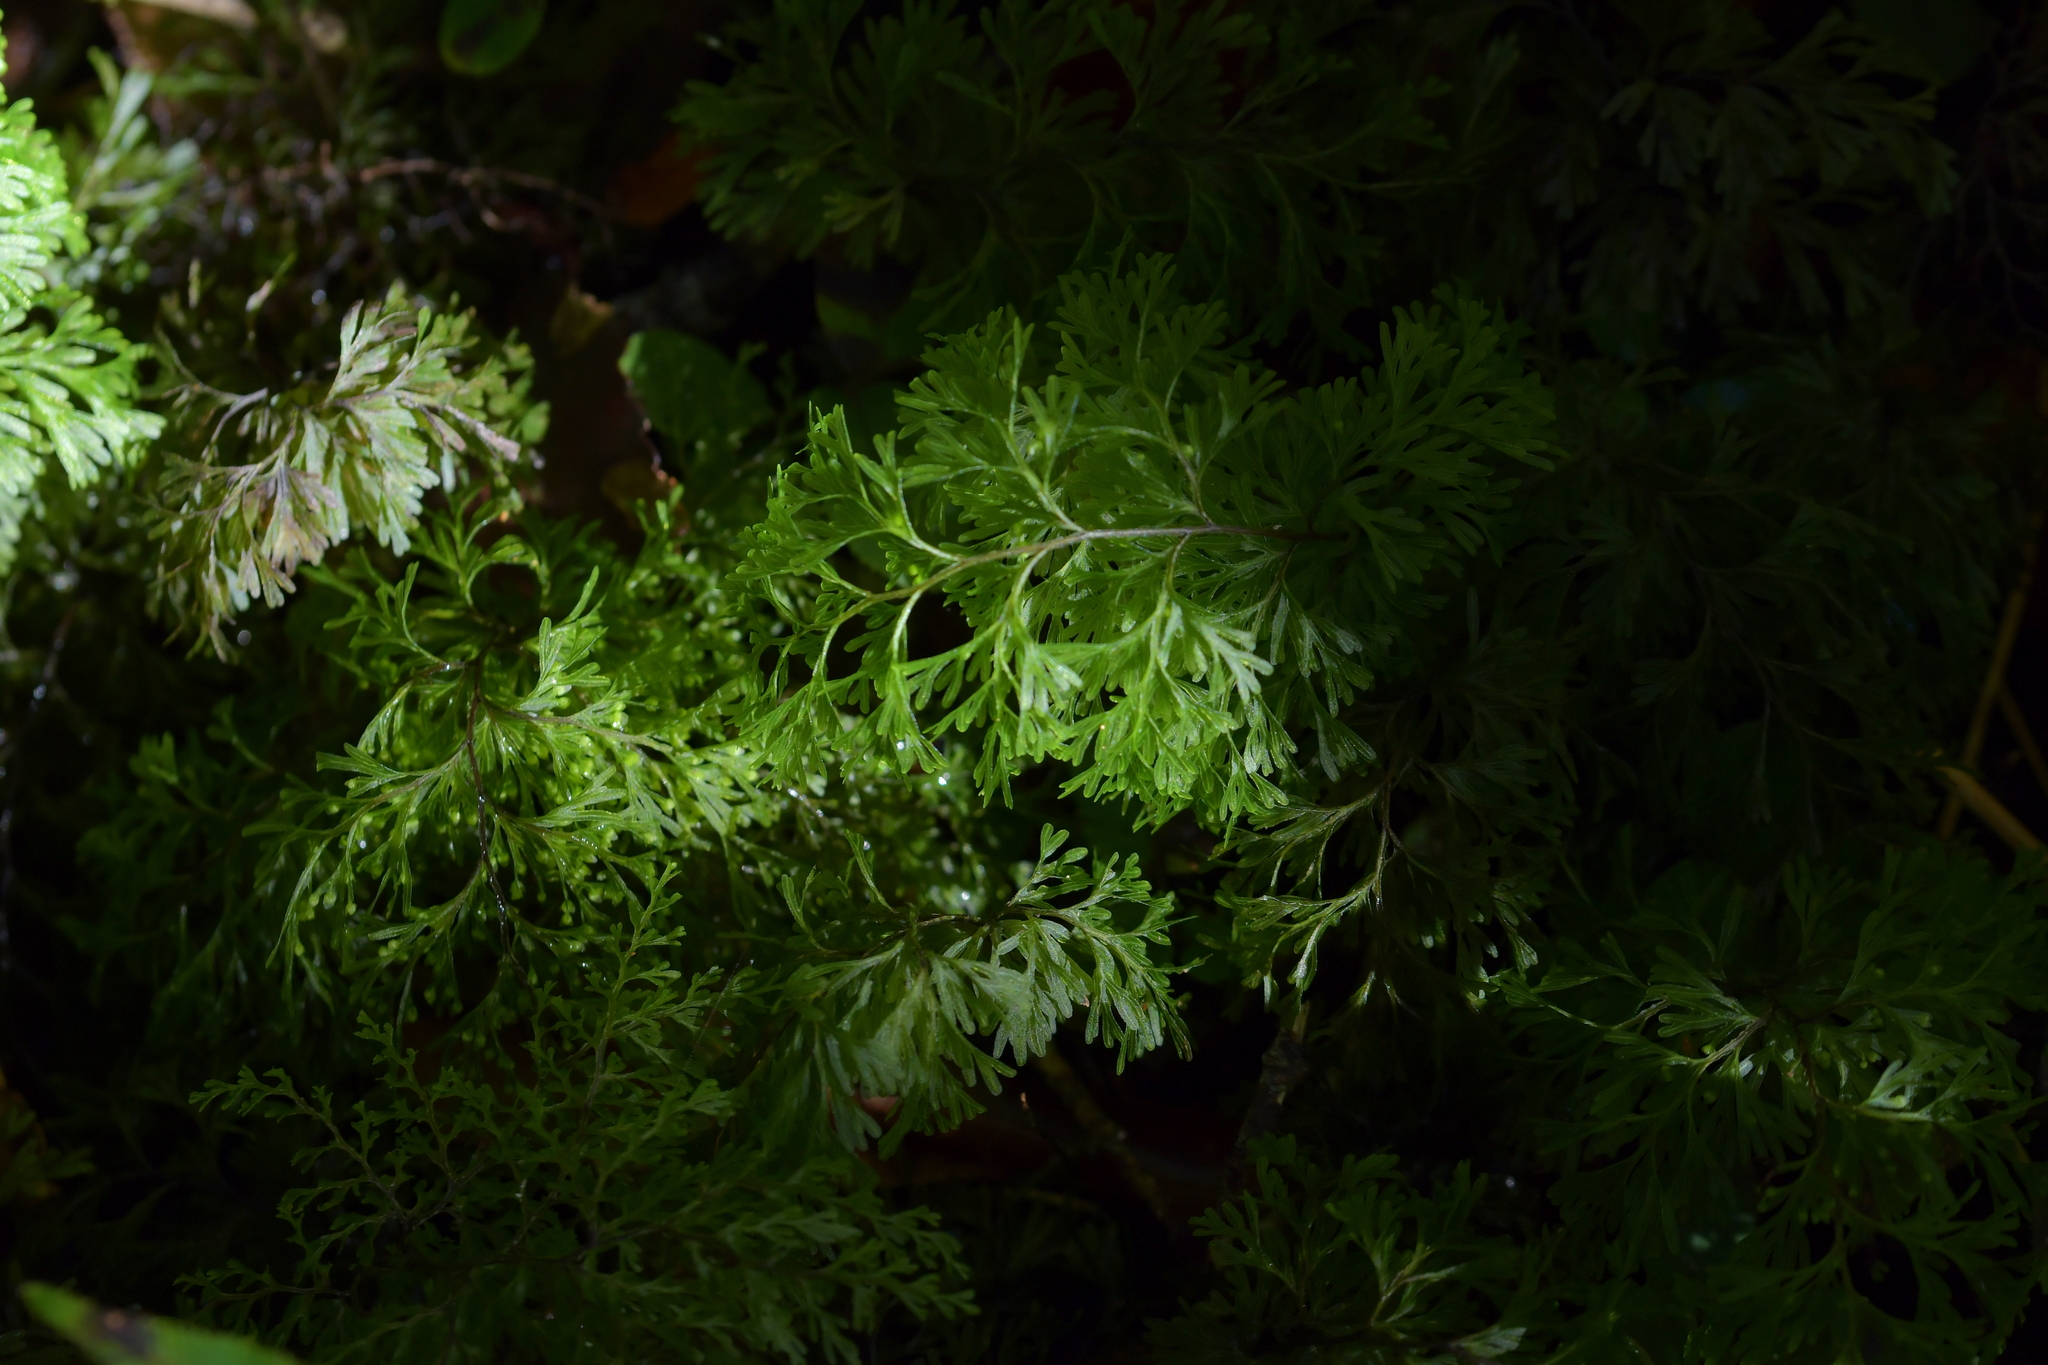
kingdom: Plantae
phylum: Tracheophyta
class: Polypodiopsida
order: Hymenophyllales
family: Hymenophyllaceae
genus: Hymenophyllum
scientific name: Hymenophyllum demissum
